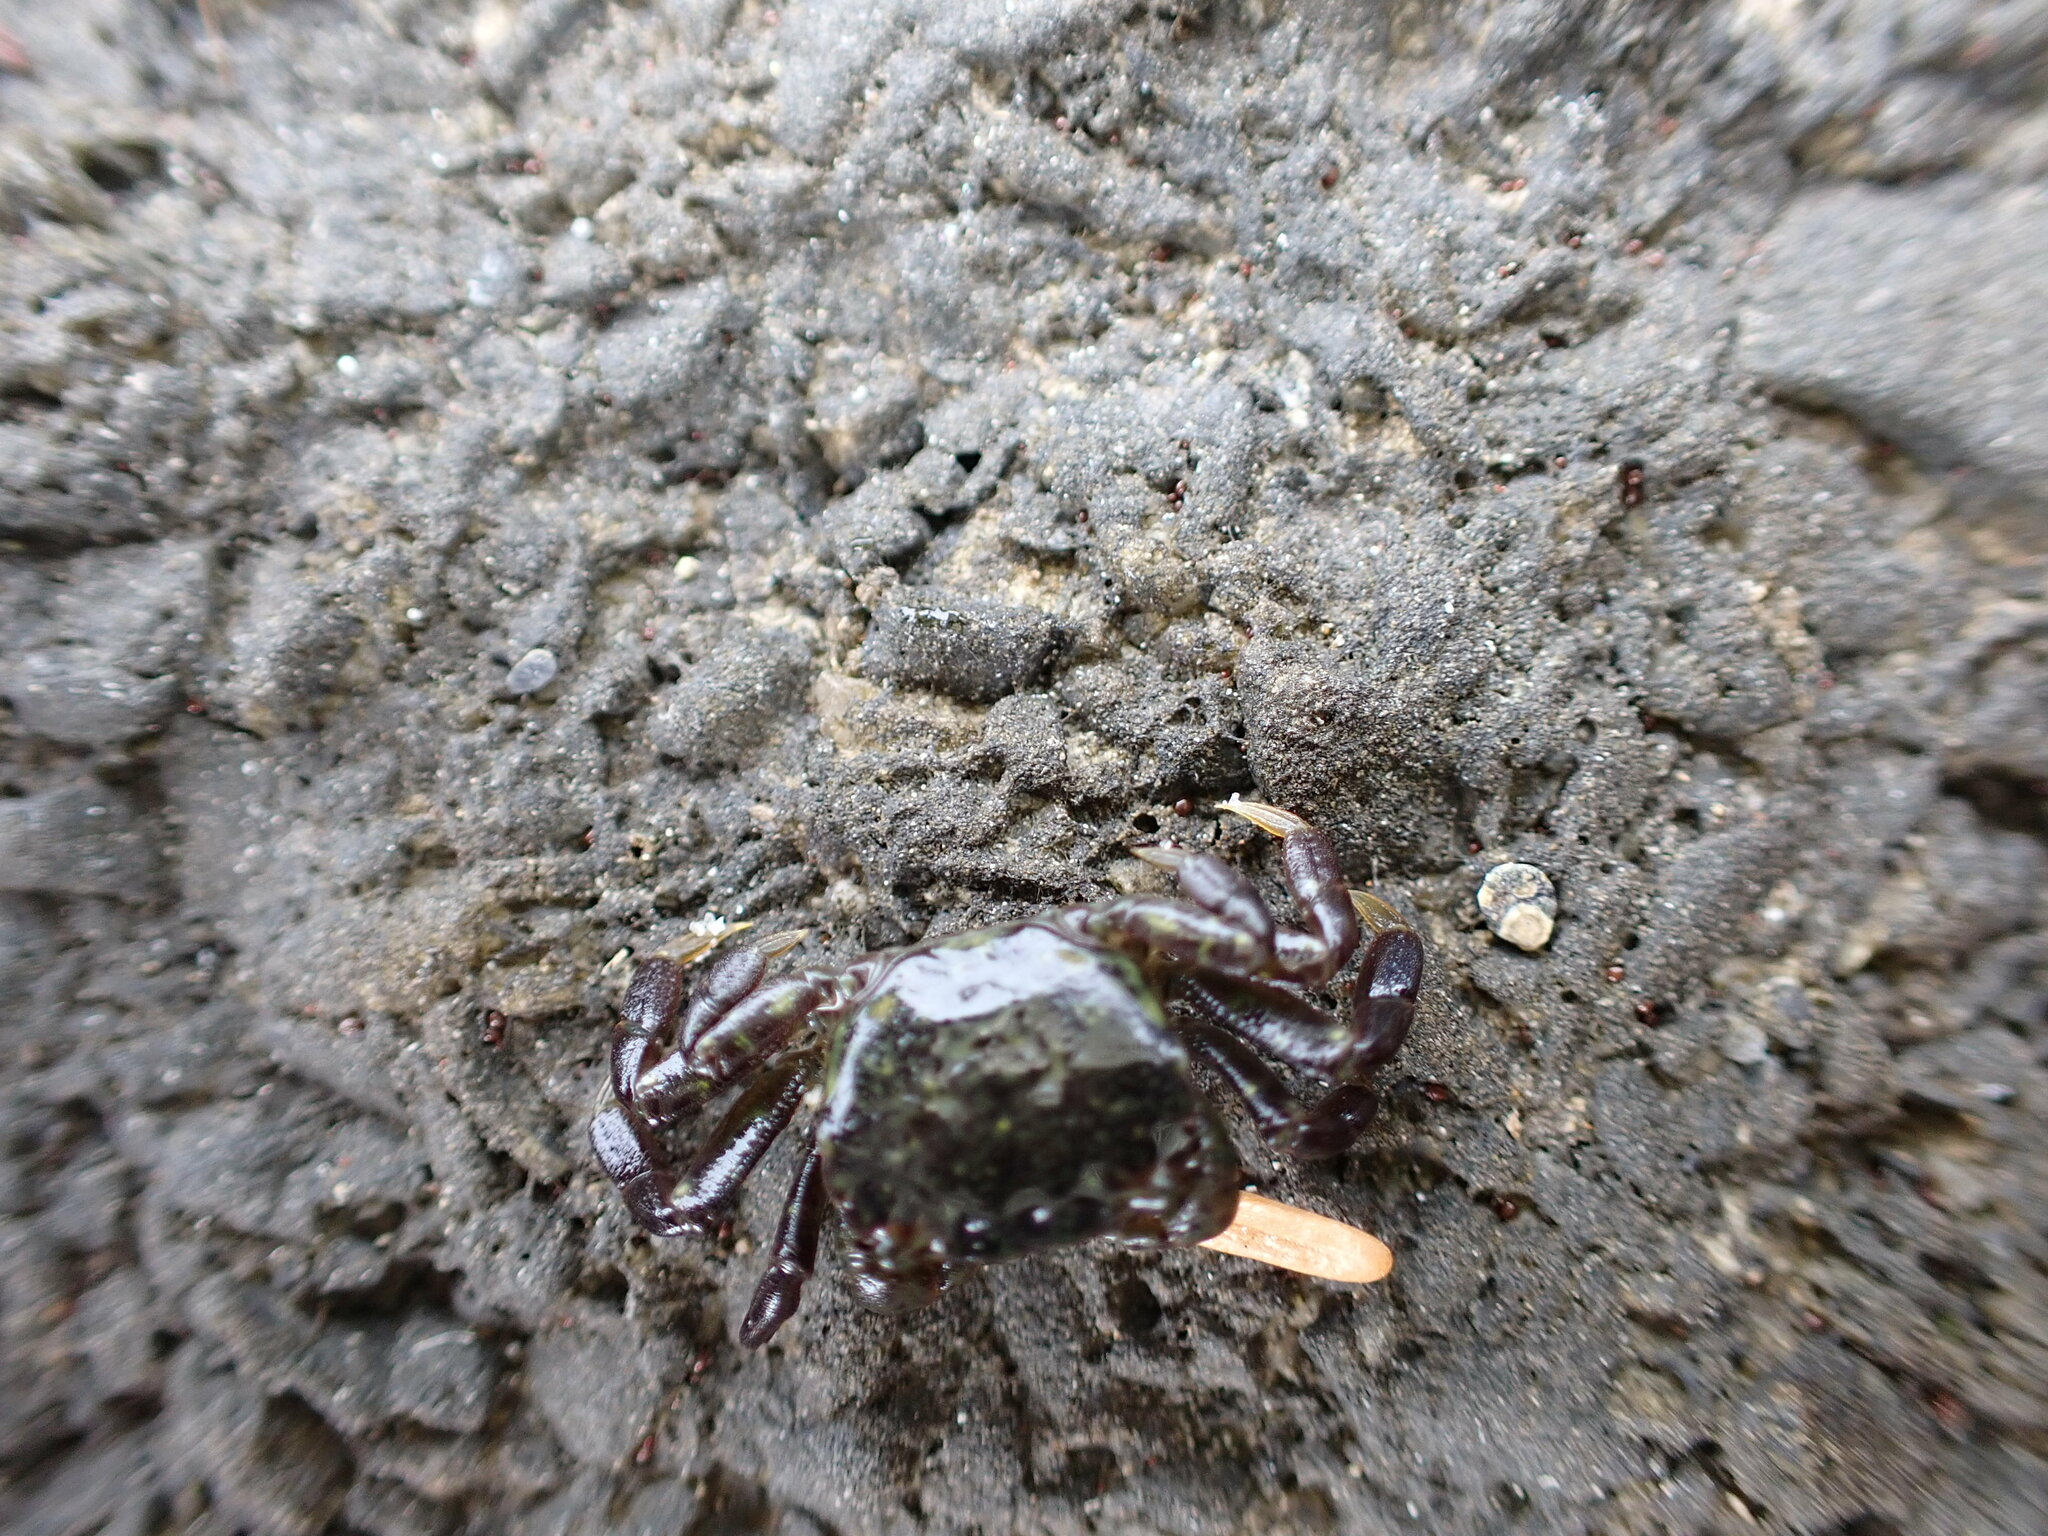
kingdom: Animalia
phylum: Arthropoda
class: Malacostraca
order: Decapoda
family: Varunidae
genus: Hemigrapsus
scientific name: Hemigrapsus nudus
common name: Purple shore crab
